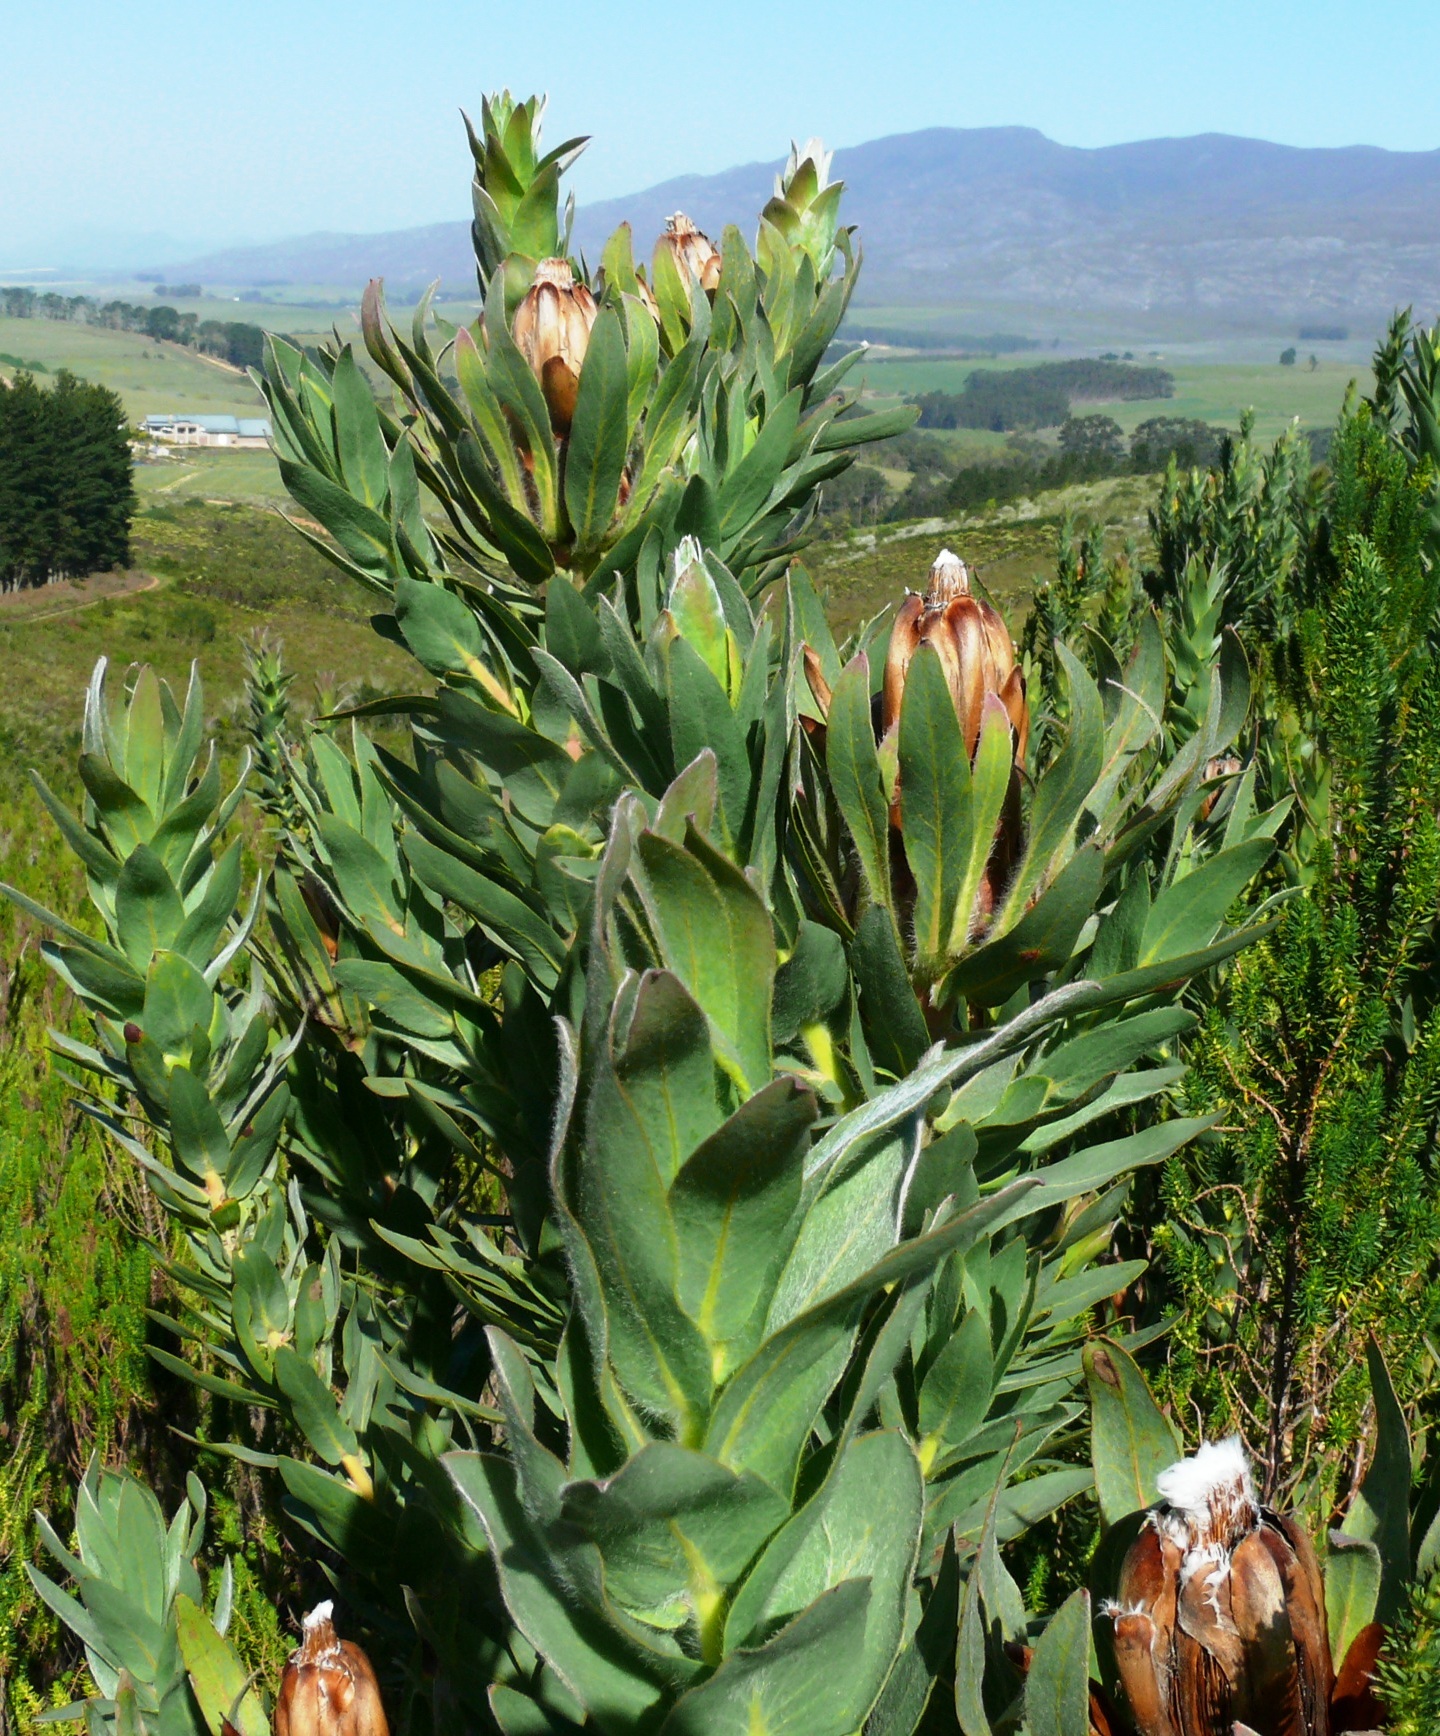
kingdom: Plantae
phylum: Tracheophyta
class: Magnoliopsida
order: Proteales
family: Proteaceae
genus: Protea
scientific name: Protea coronata
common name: Green sugarbush
